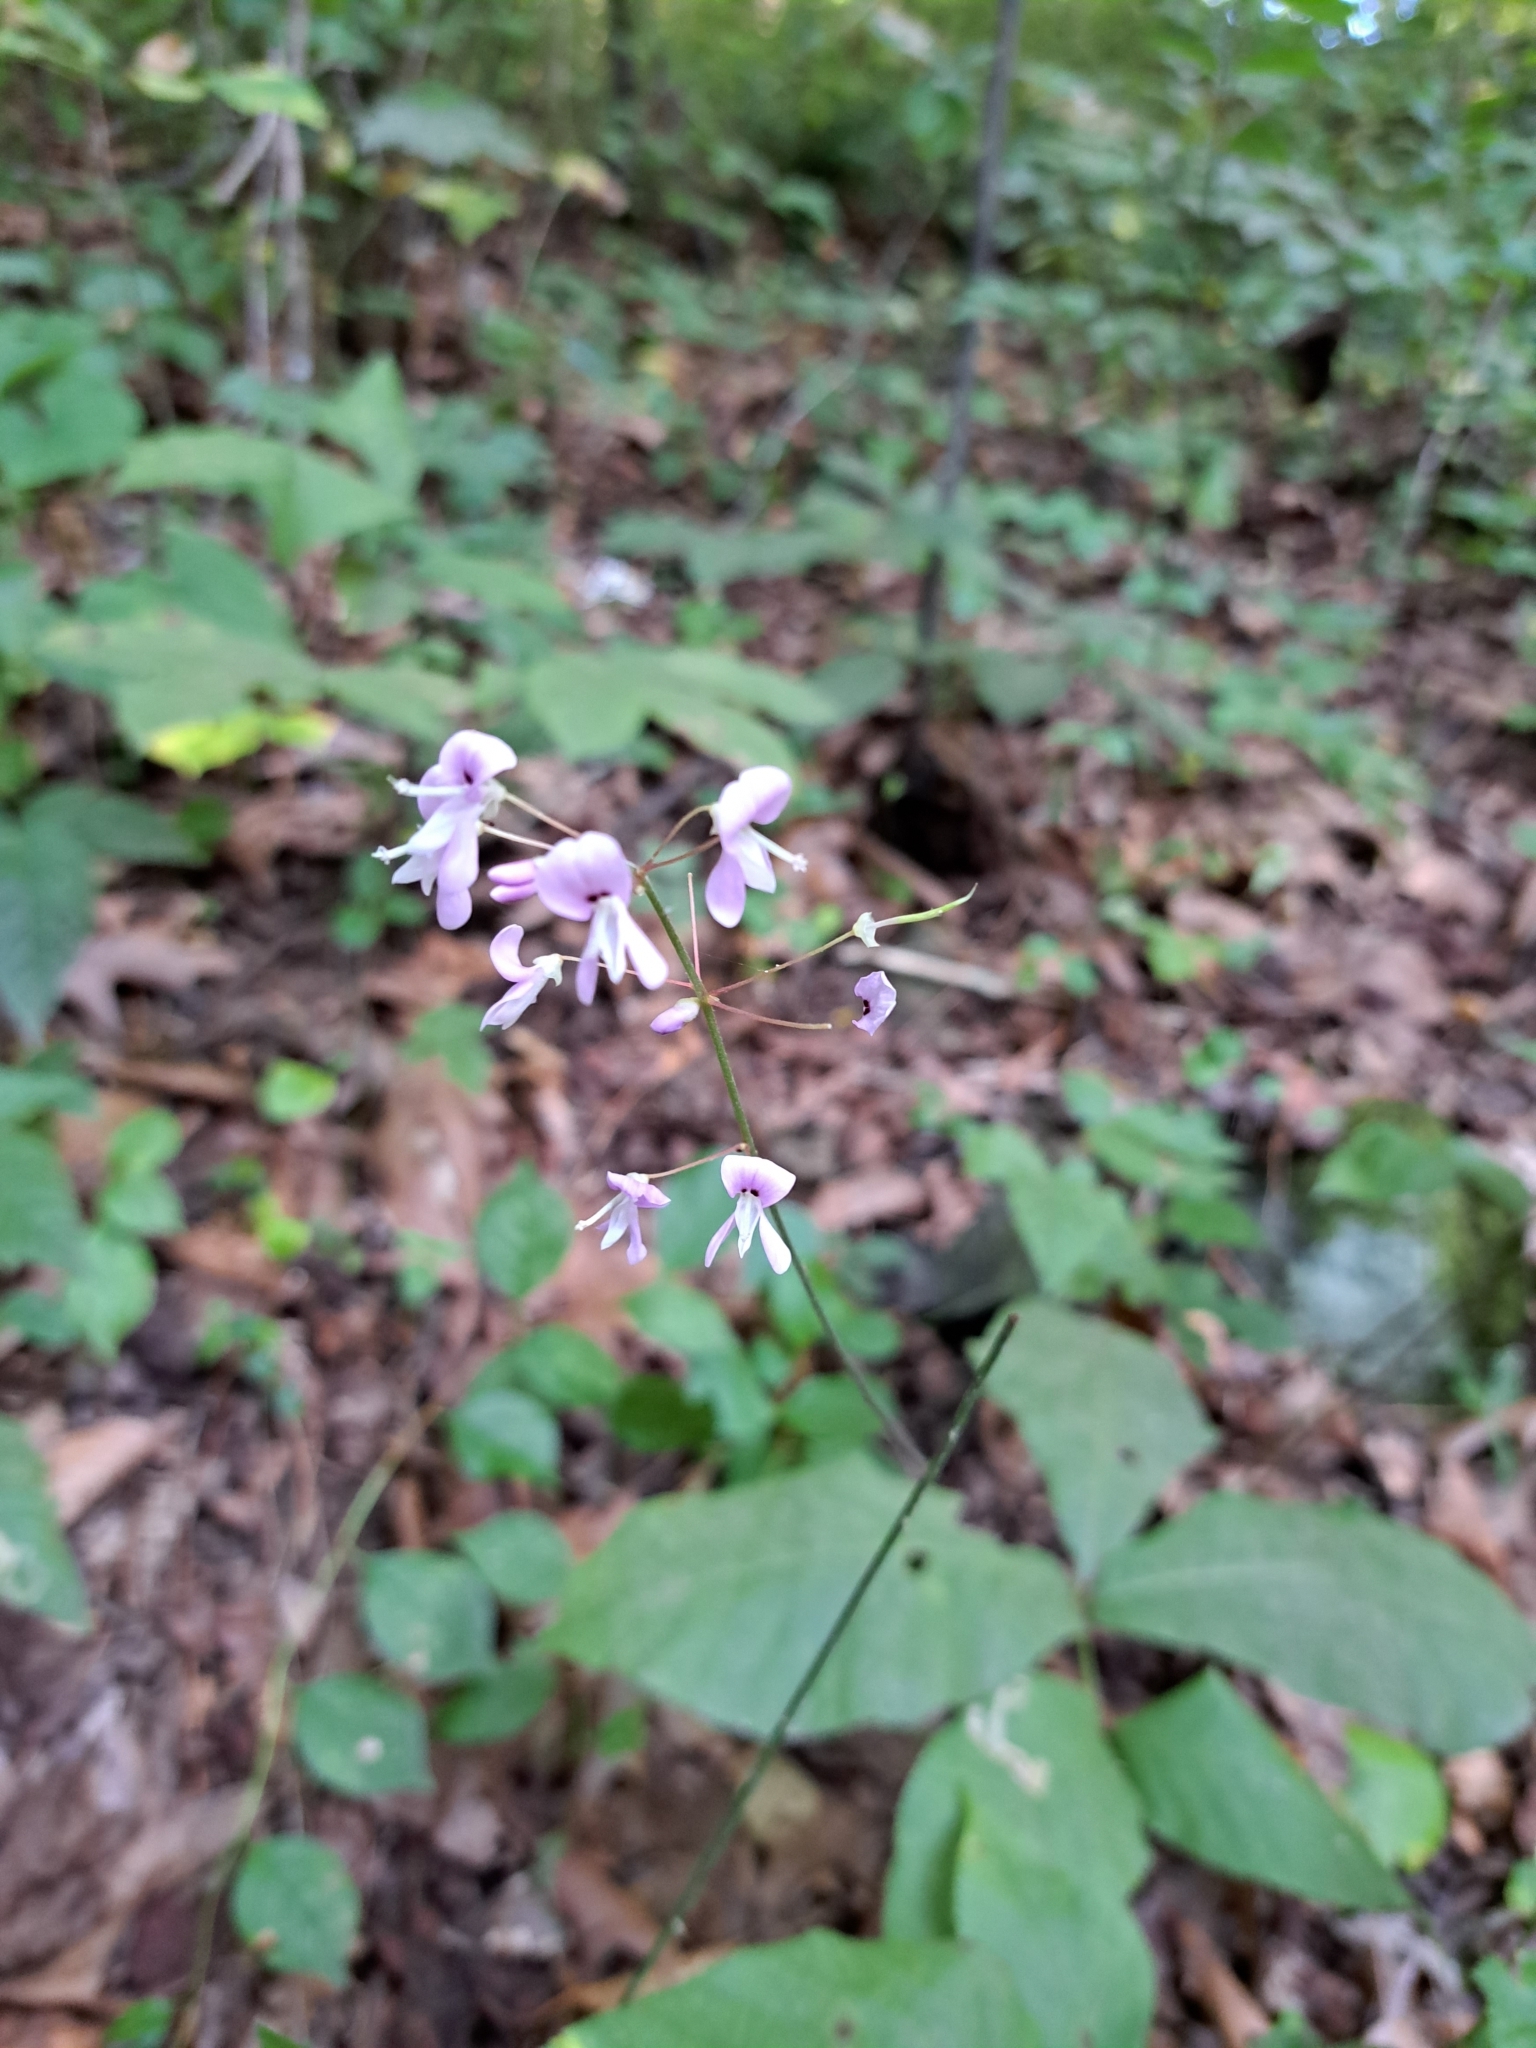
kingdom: Plantae
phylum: Tracheophyta
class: Magnoliopsida
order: Fabales
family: Fabaceae
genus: Hylodesmum
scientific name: Hylodesmum nudiflorum
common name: Bare-stemmed tick-trefoil
